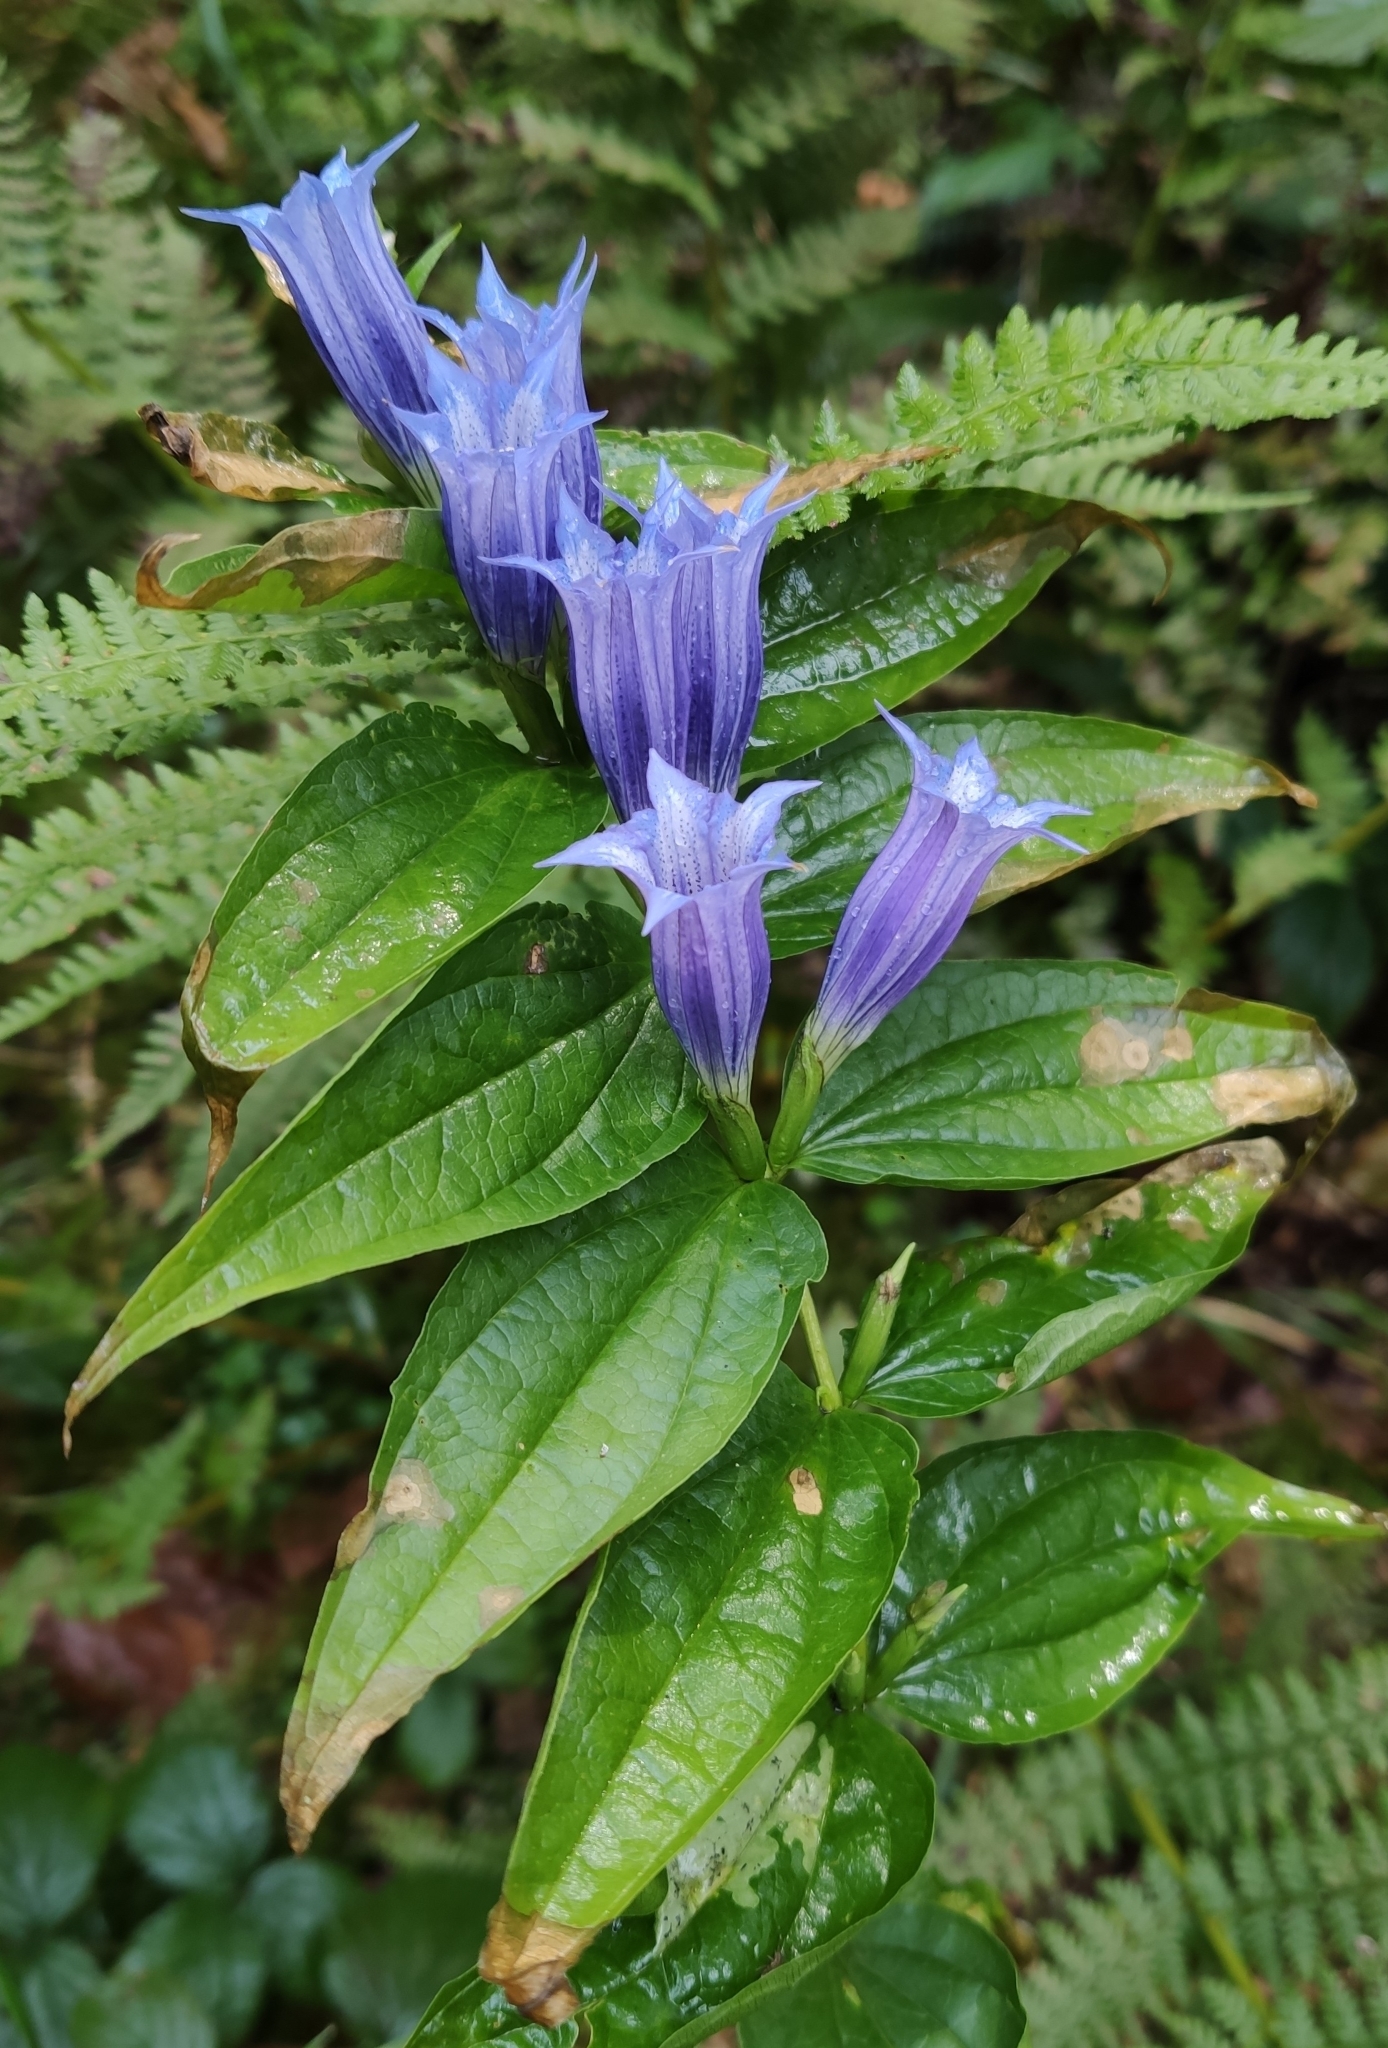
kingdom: Plantae
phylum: Tracheophyta
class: Magnoliopsida
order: Gentianales
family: Gentianaceae
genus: Gentiana
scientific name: Gentiana asclepiadea
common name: Willow gentian
